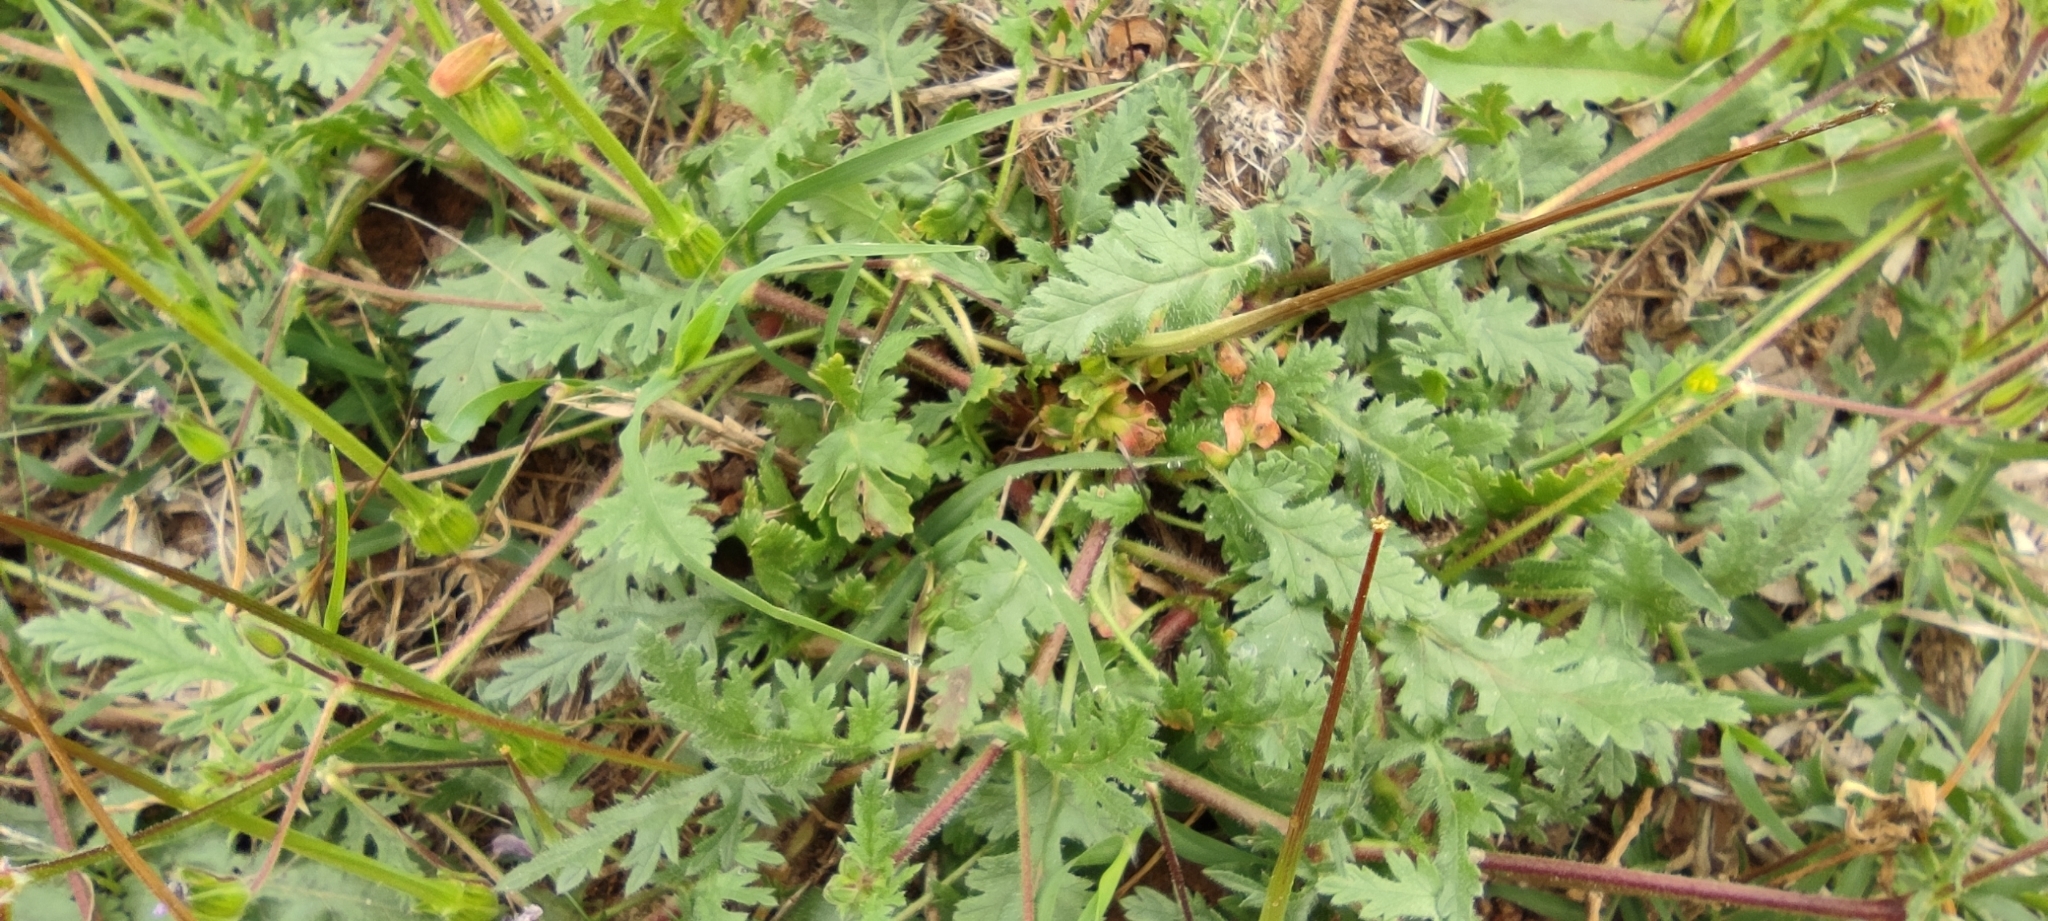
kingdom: Plantae
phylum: Tracheophyta
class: Magnoliopsida
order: Geraniales
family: Geraniaceae
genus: Erodium
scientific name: Erodium botrys
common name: Mediterranean stork's-bill
